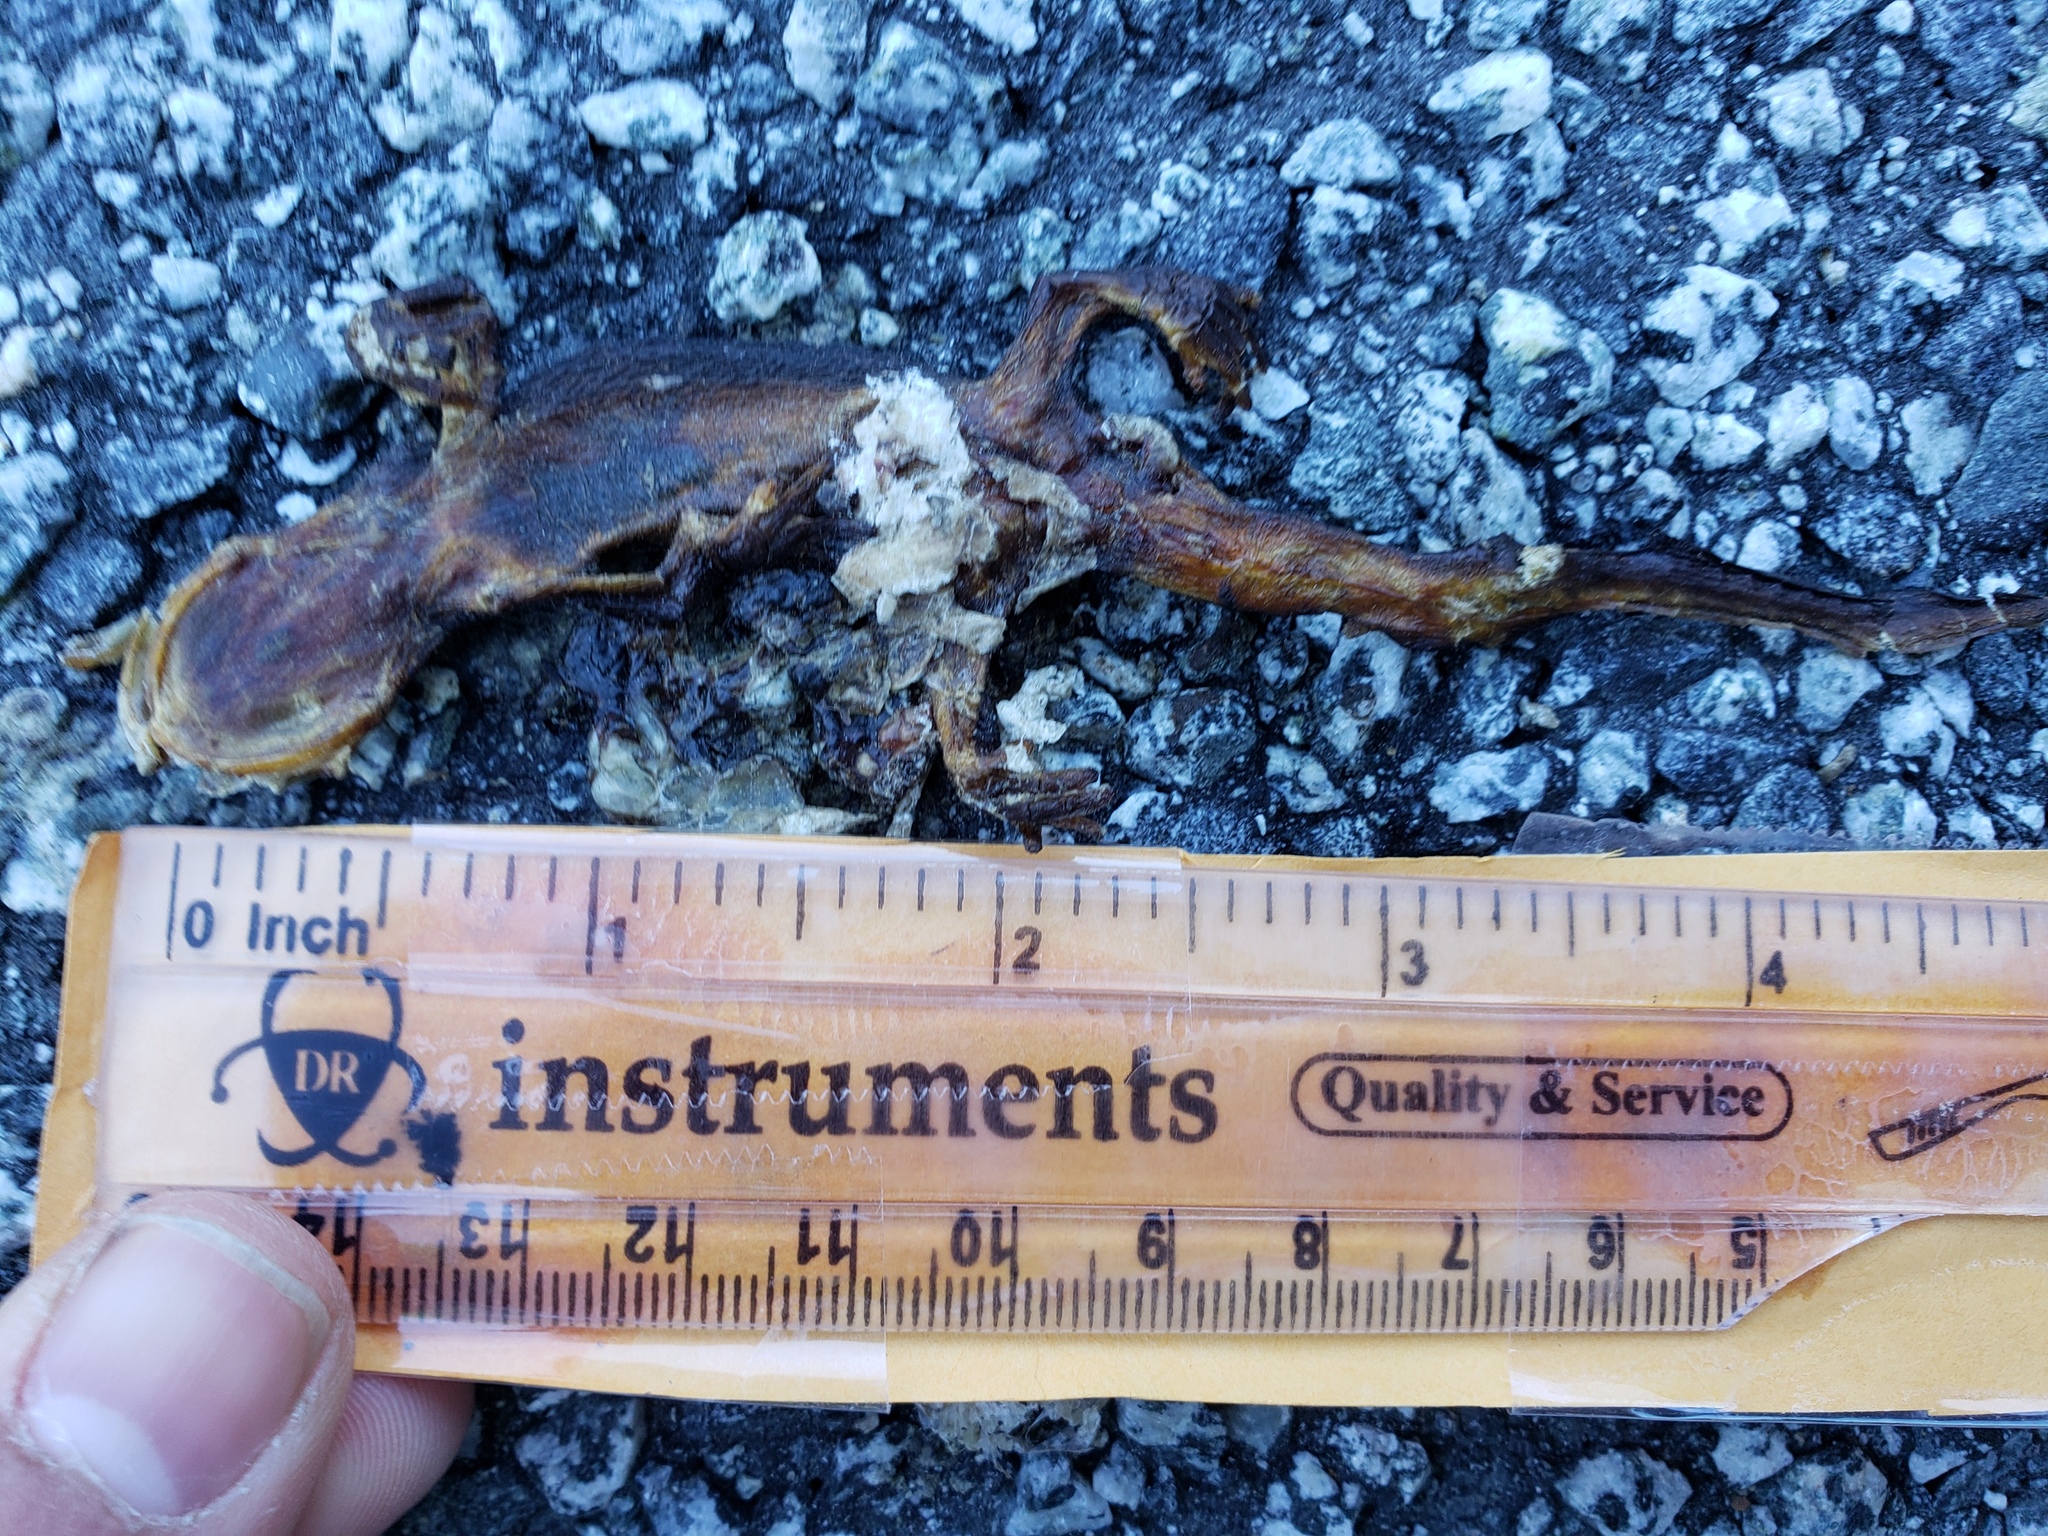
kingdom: Animalia
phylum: Chordata
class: Amphibia
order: Caudata
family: Salamandridae
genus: Taricha
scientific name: Taricha
